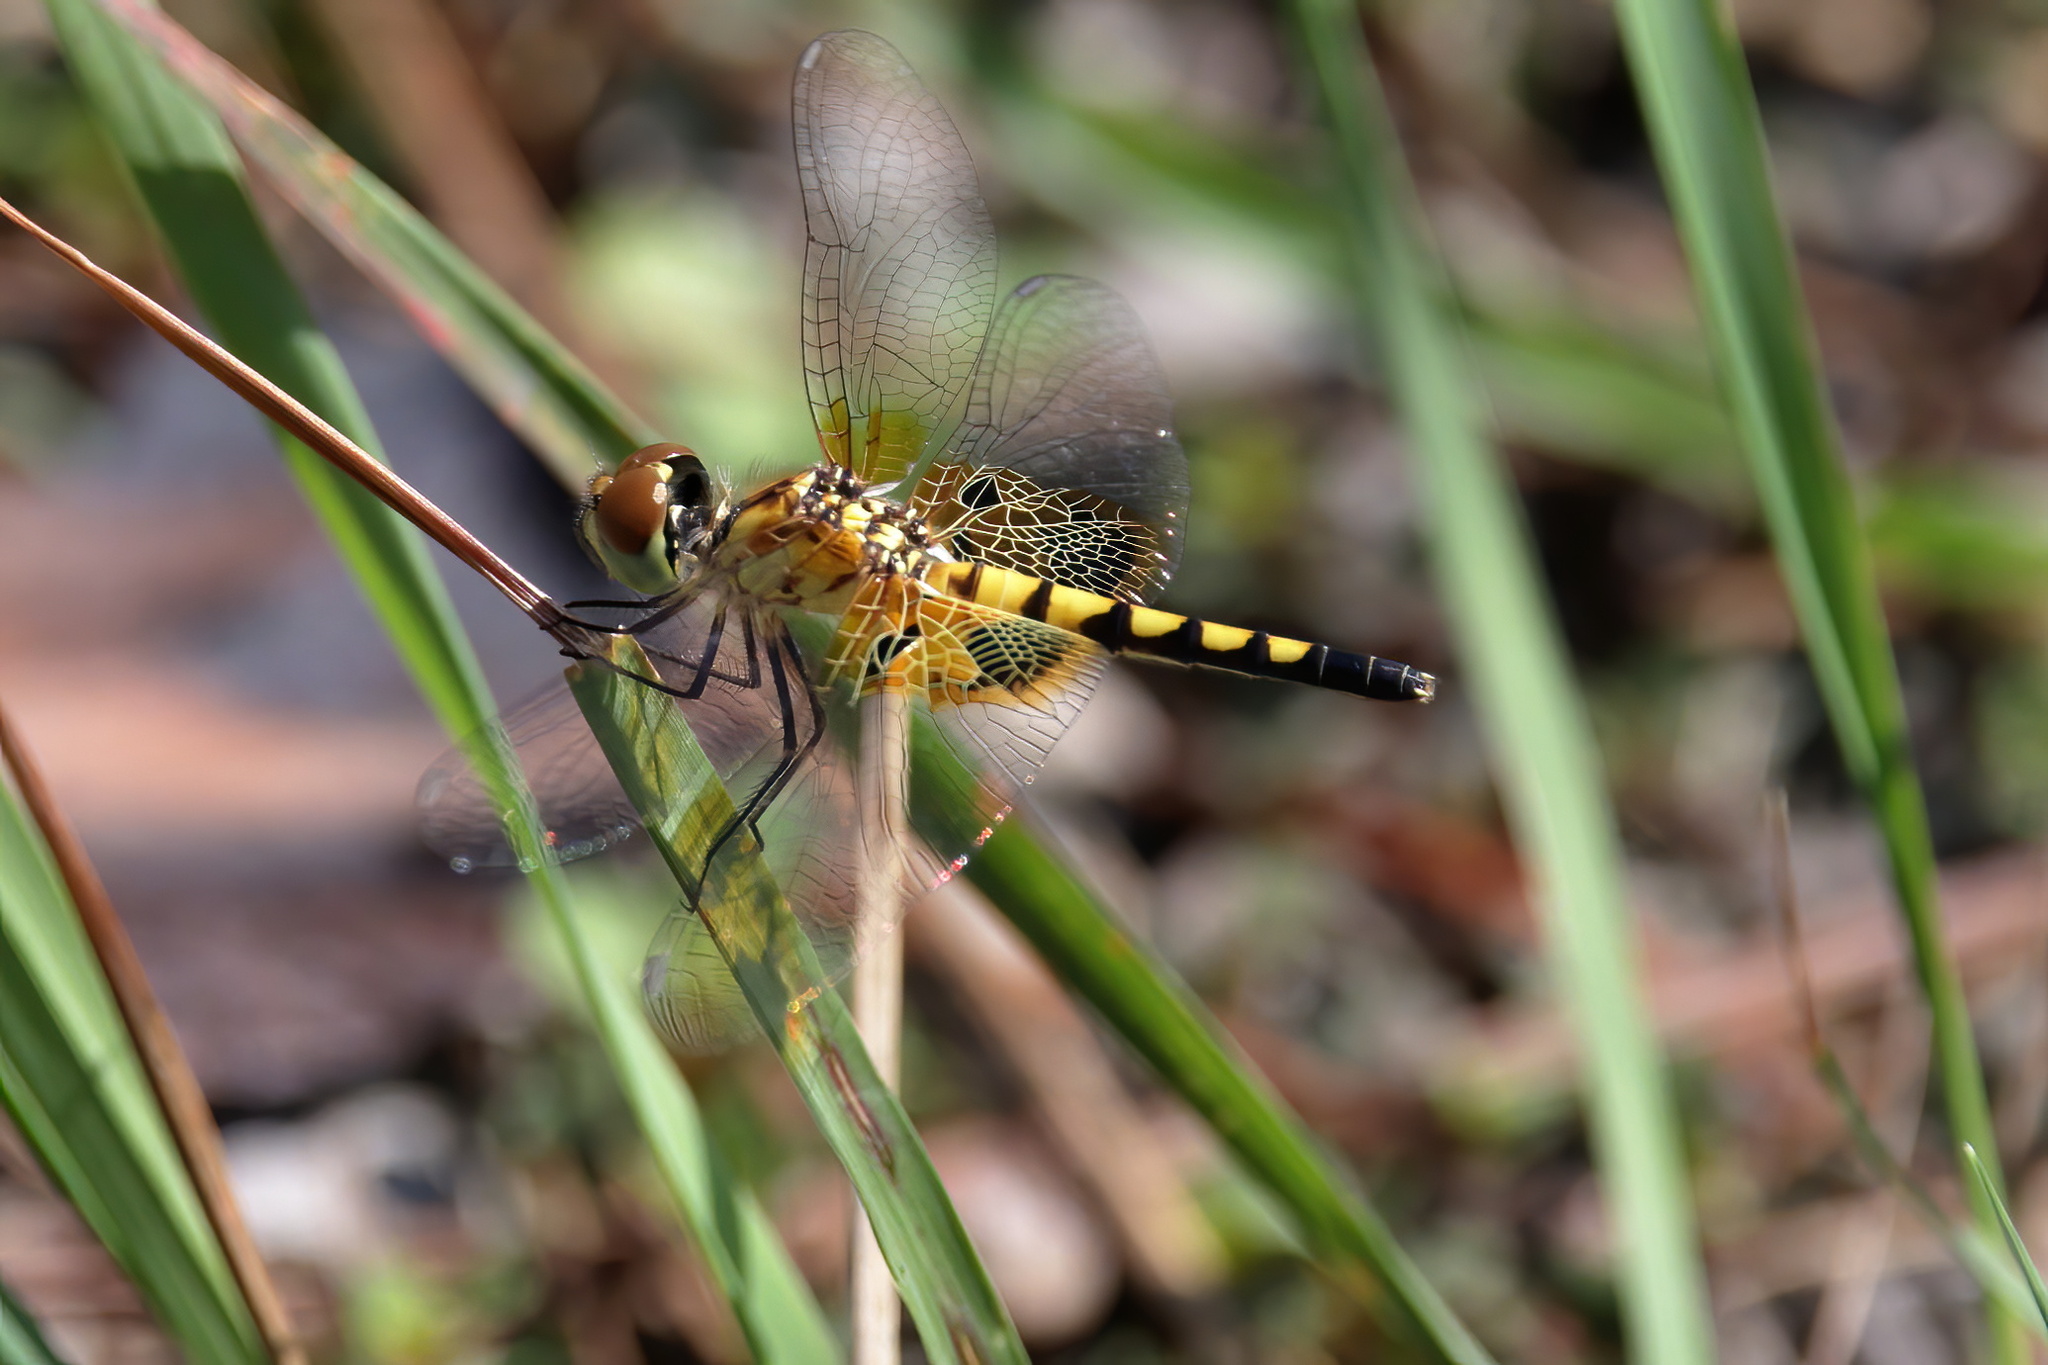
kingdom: Animalia
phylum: Arthropoda
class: Insecta
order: Odonata
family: Libellulidae
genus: Celithemis
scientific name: Celithemis amanda
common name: Amanda's pennant
